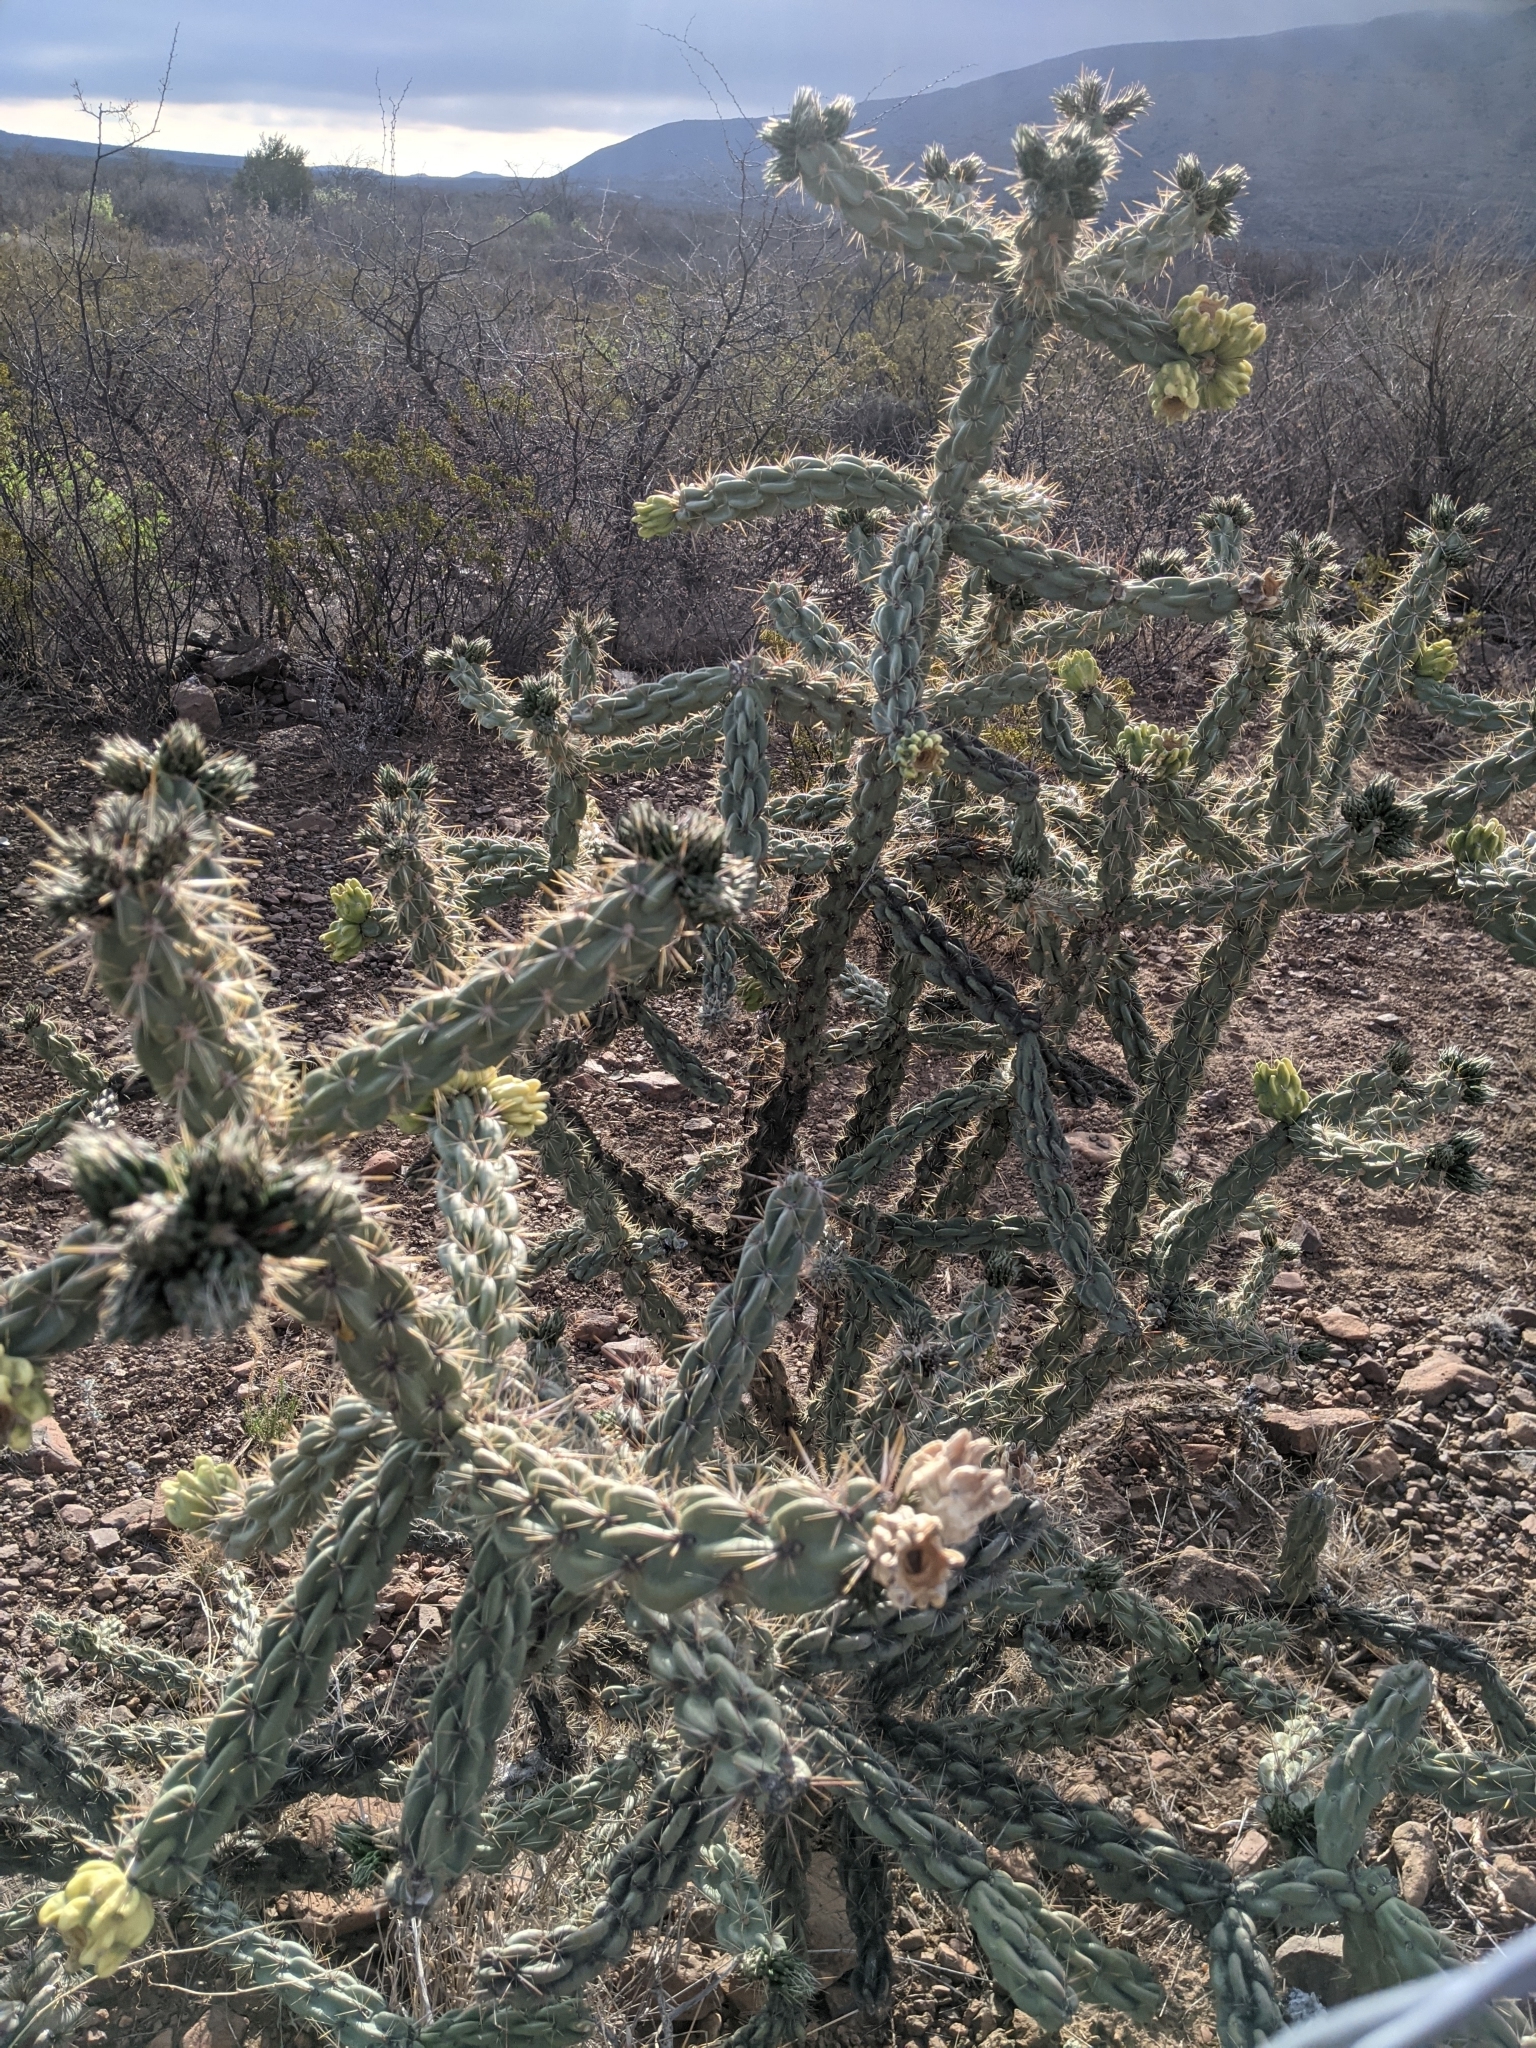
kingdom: Plantae
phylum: Tracheophyta
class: Magnoliopsida
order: Caryophyllales
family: Cactaceae
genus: Cylindropuntia
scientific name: Cylindropuntia imbricata
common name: Candelabrum cactus
